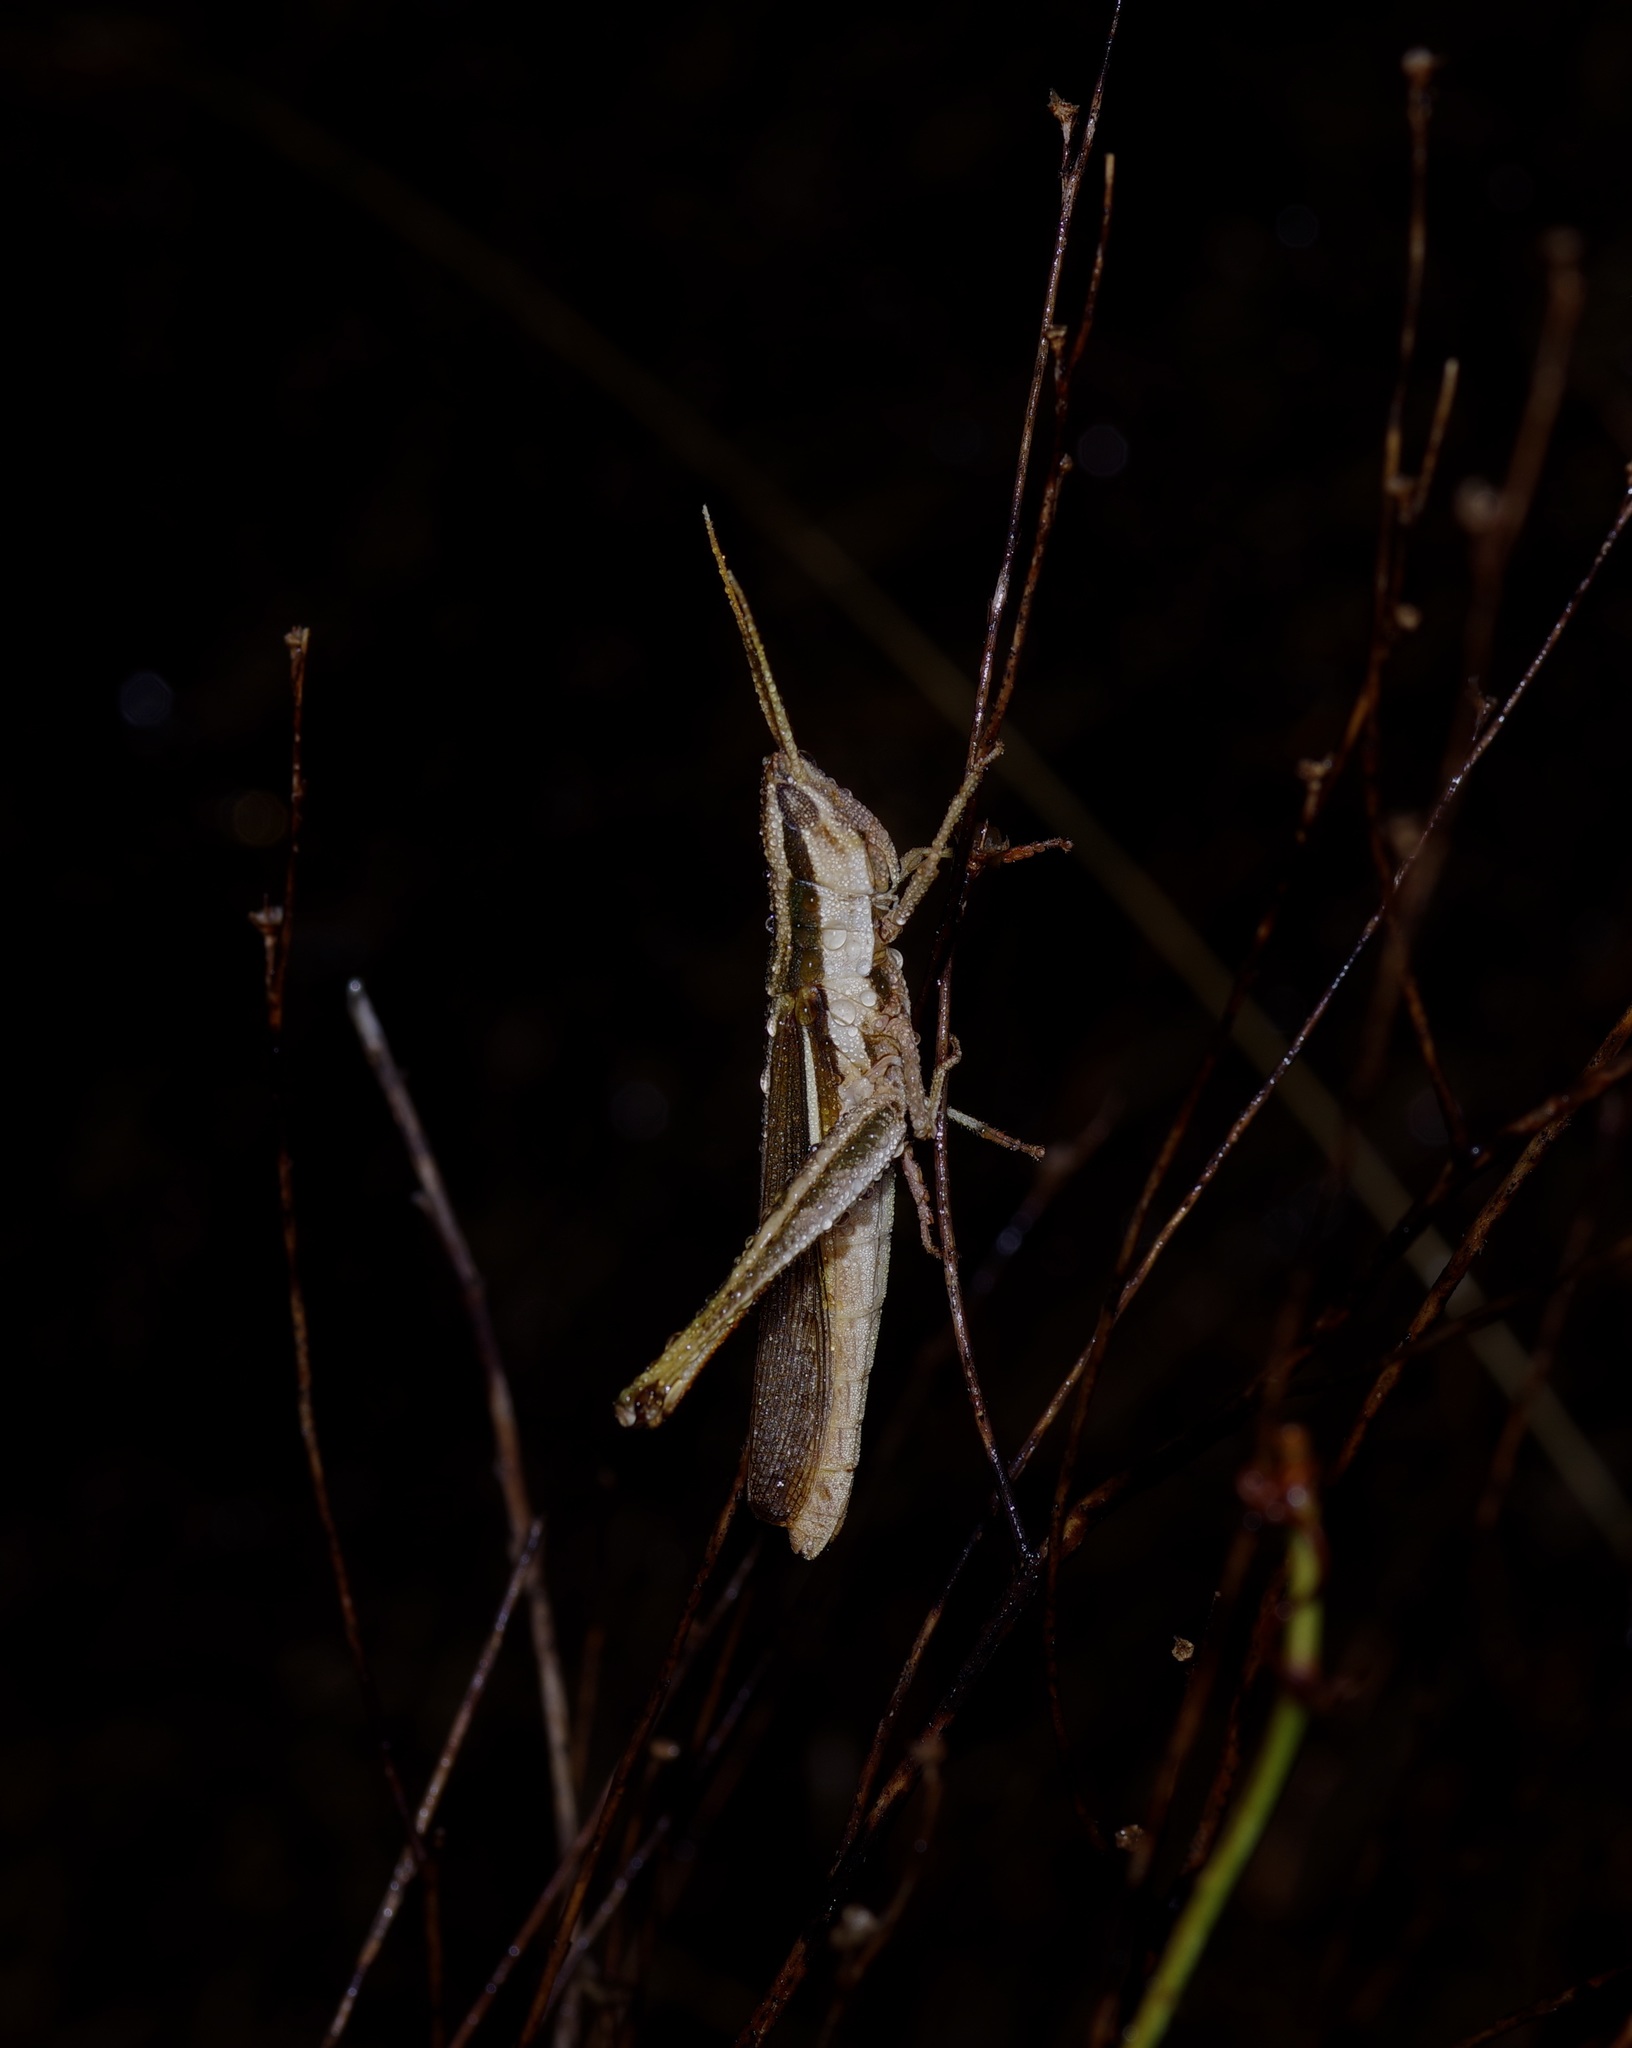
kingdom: Animalia
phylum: Arthropoda
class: Insecta
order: Orthoptera
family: Acrididae
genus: Mermiria
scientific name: Mermiria bivittata
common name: Two-striped mermiria grasshopper
